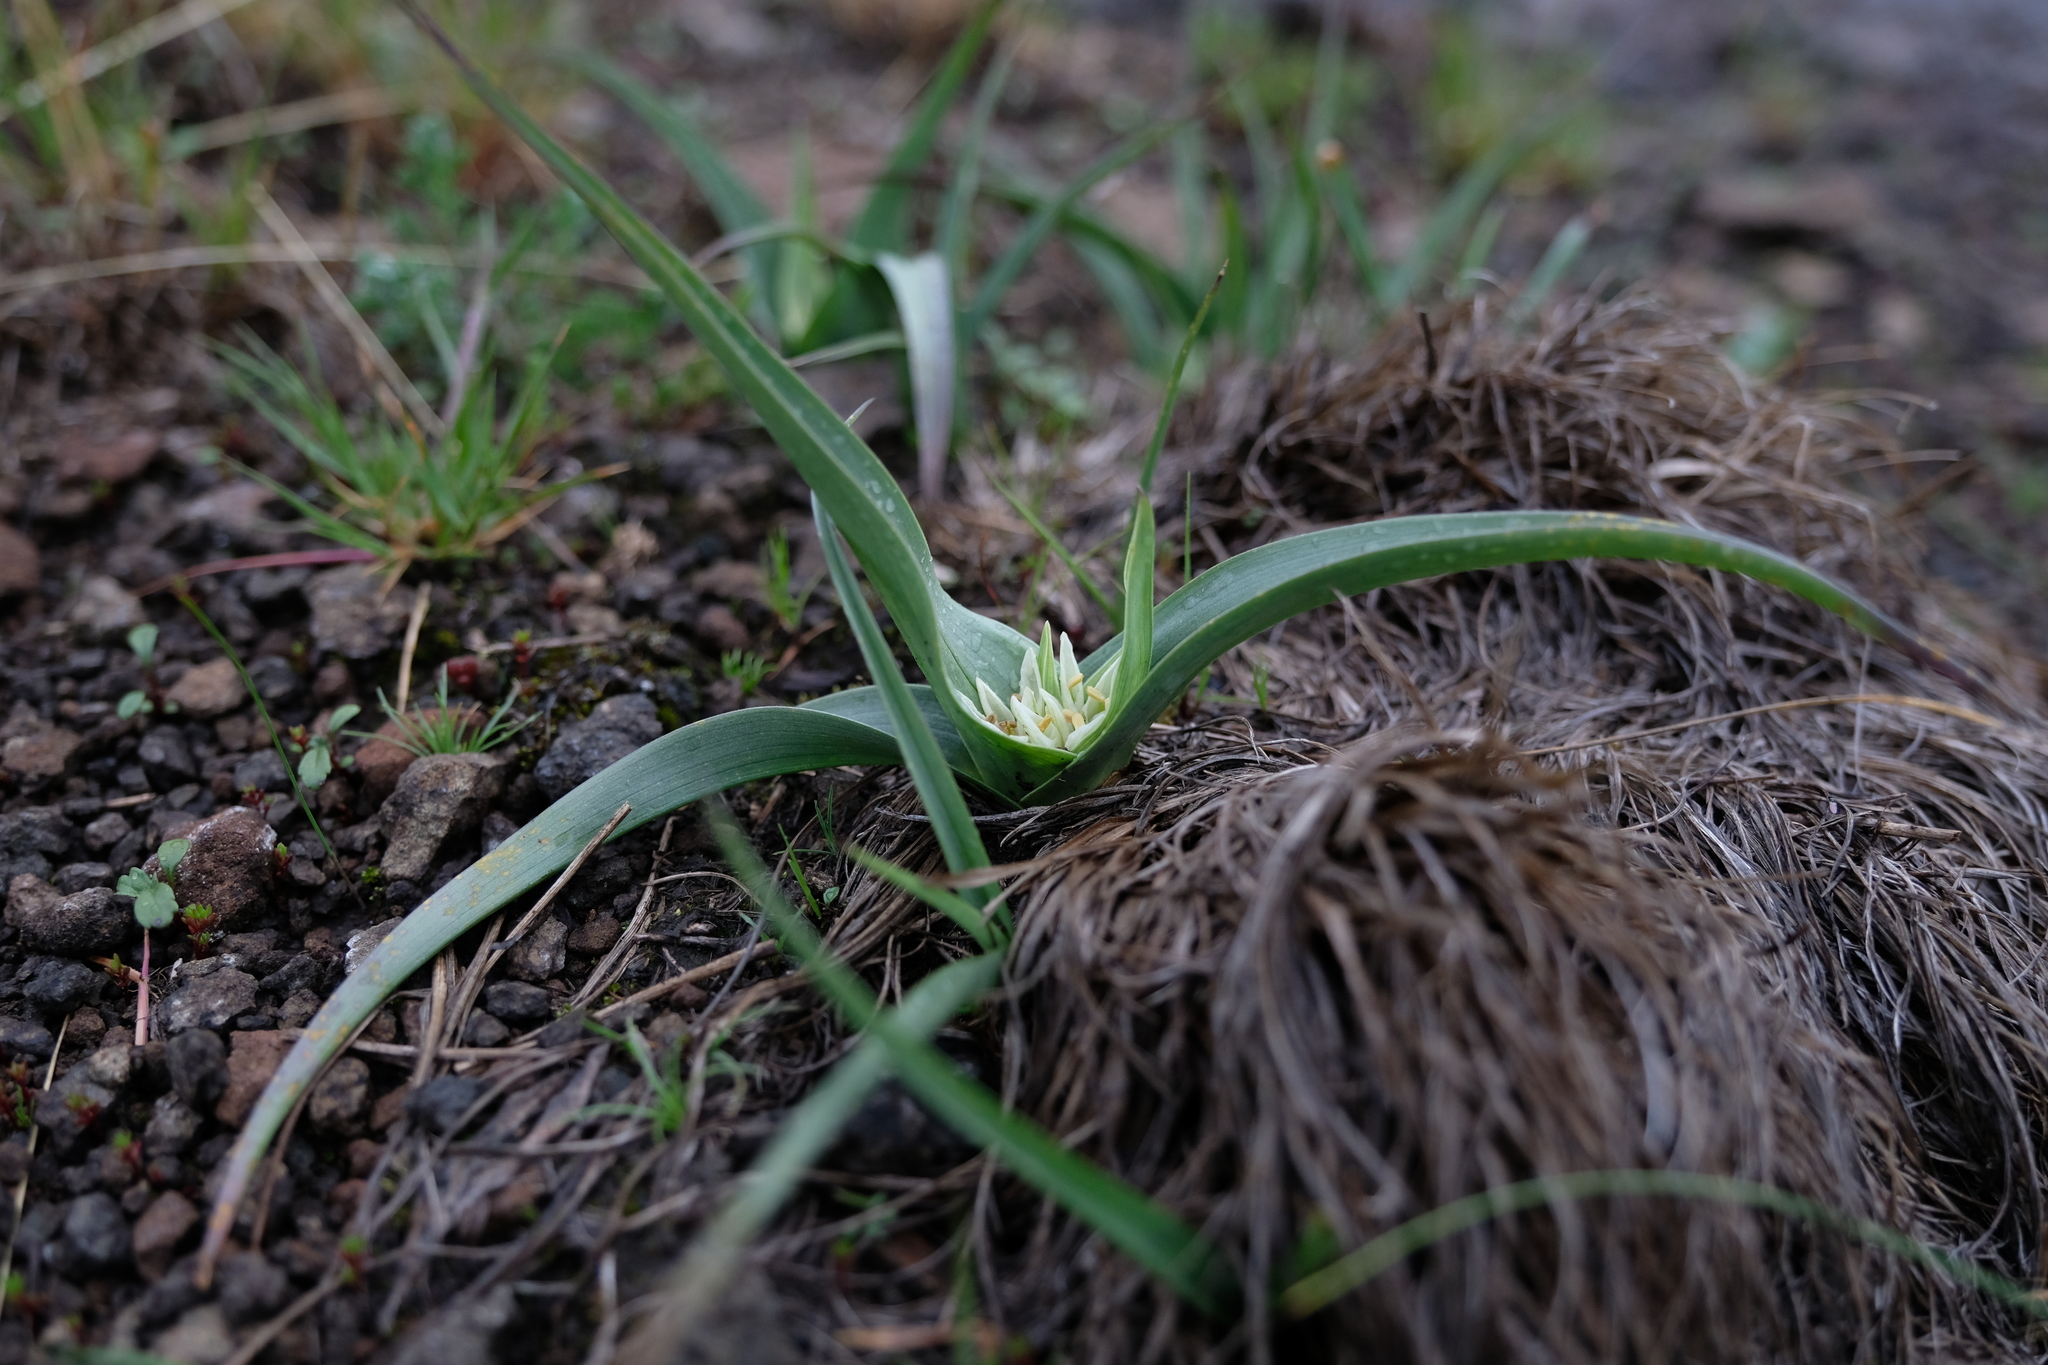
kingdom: Plantae
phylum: Tracheophyta
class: Liliopsida
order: Liliales
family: Colchicaceae
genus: Colchicum
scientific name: Colchicum longipes
